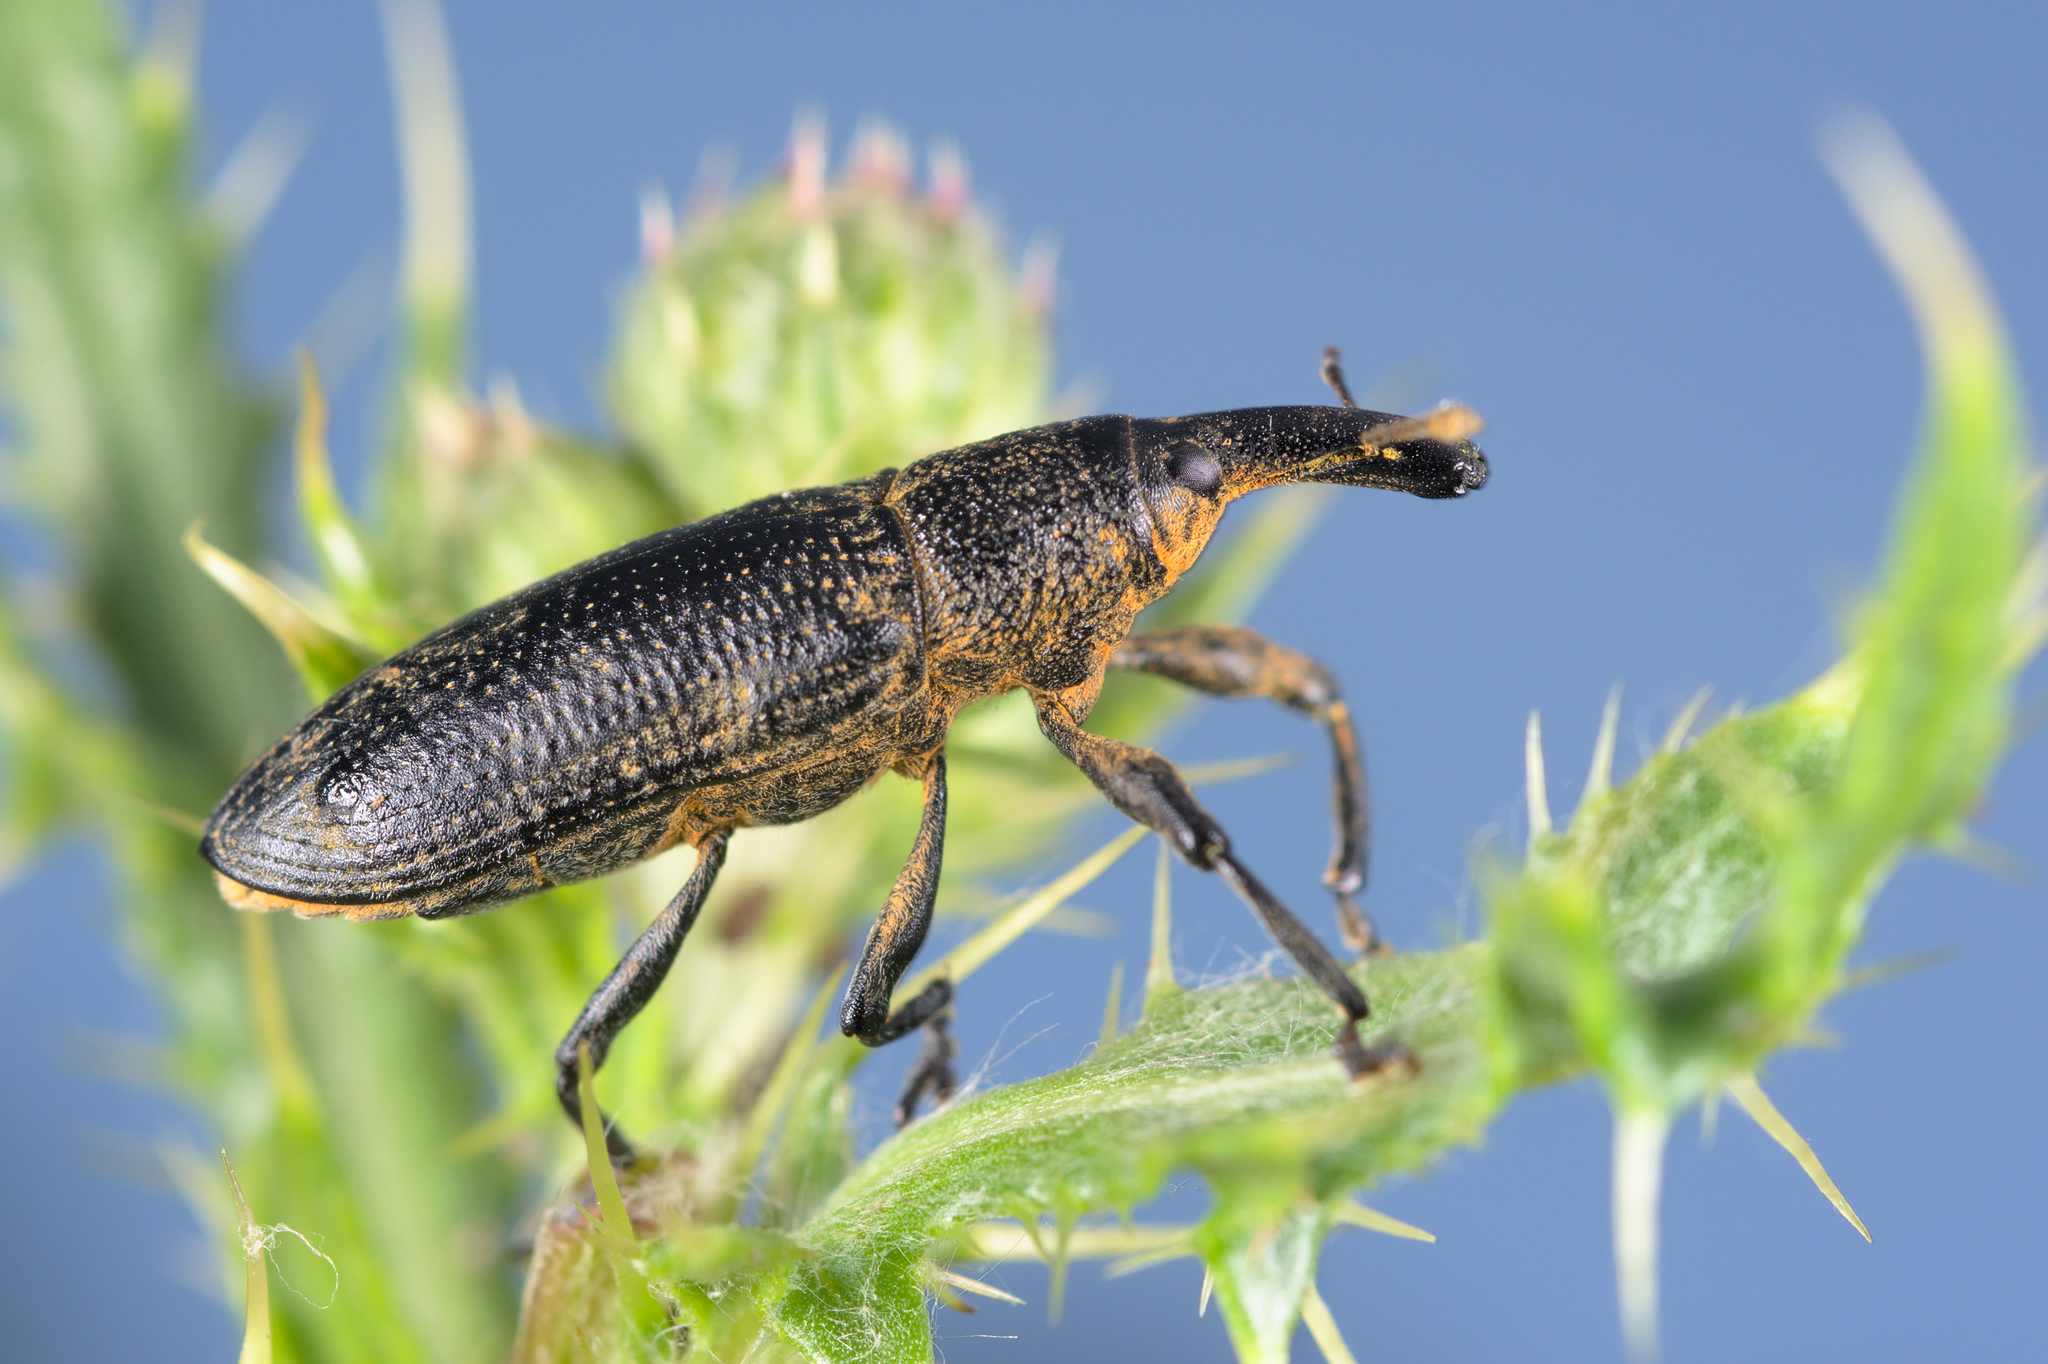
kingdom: Animalia
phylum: Arthropoda
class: Insecta
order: Coleoptera
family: Curculionidae
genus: Lixus
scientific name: Lixus pulverulentus
